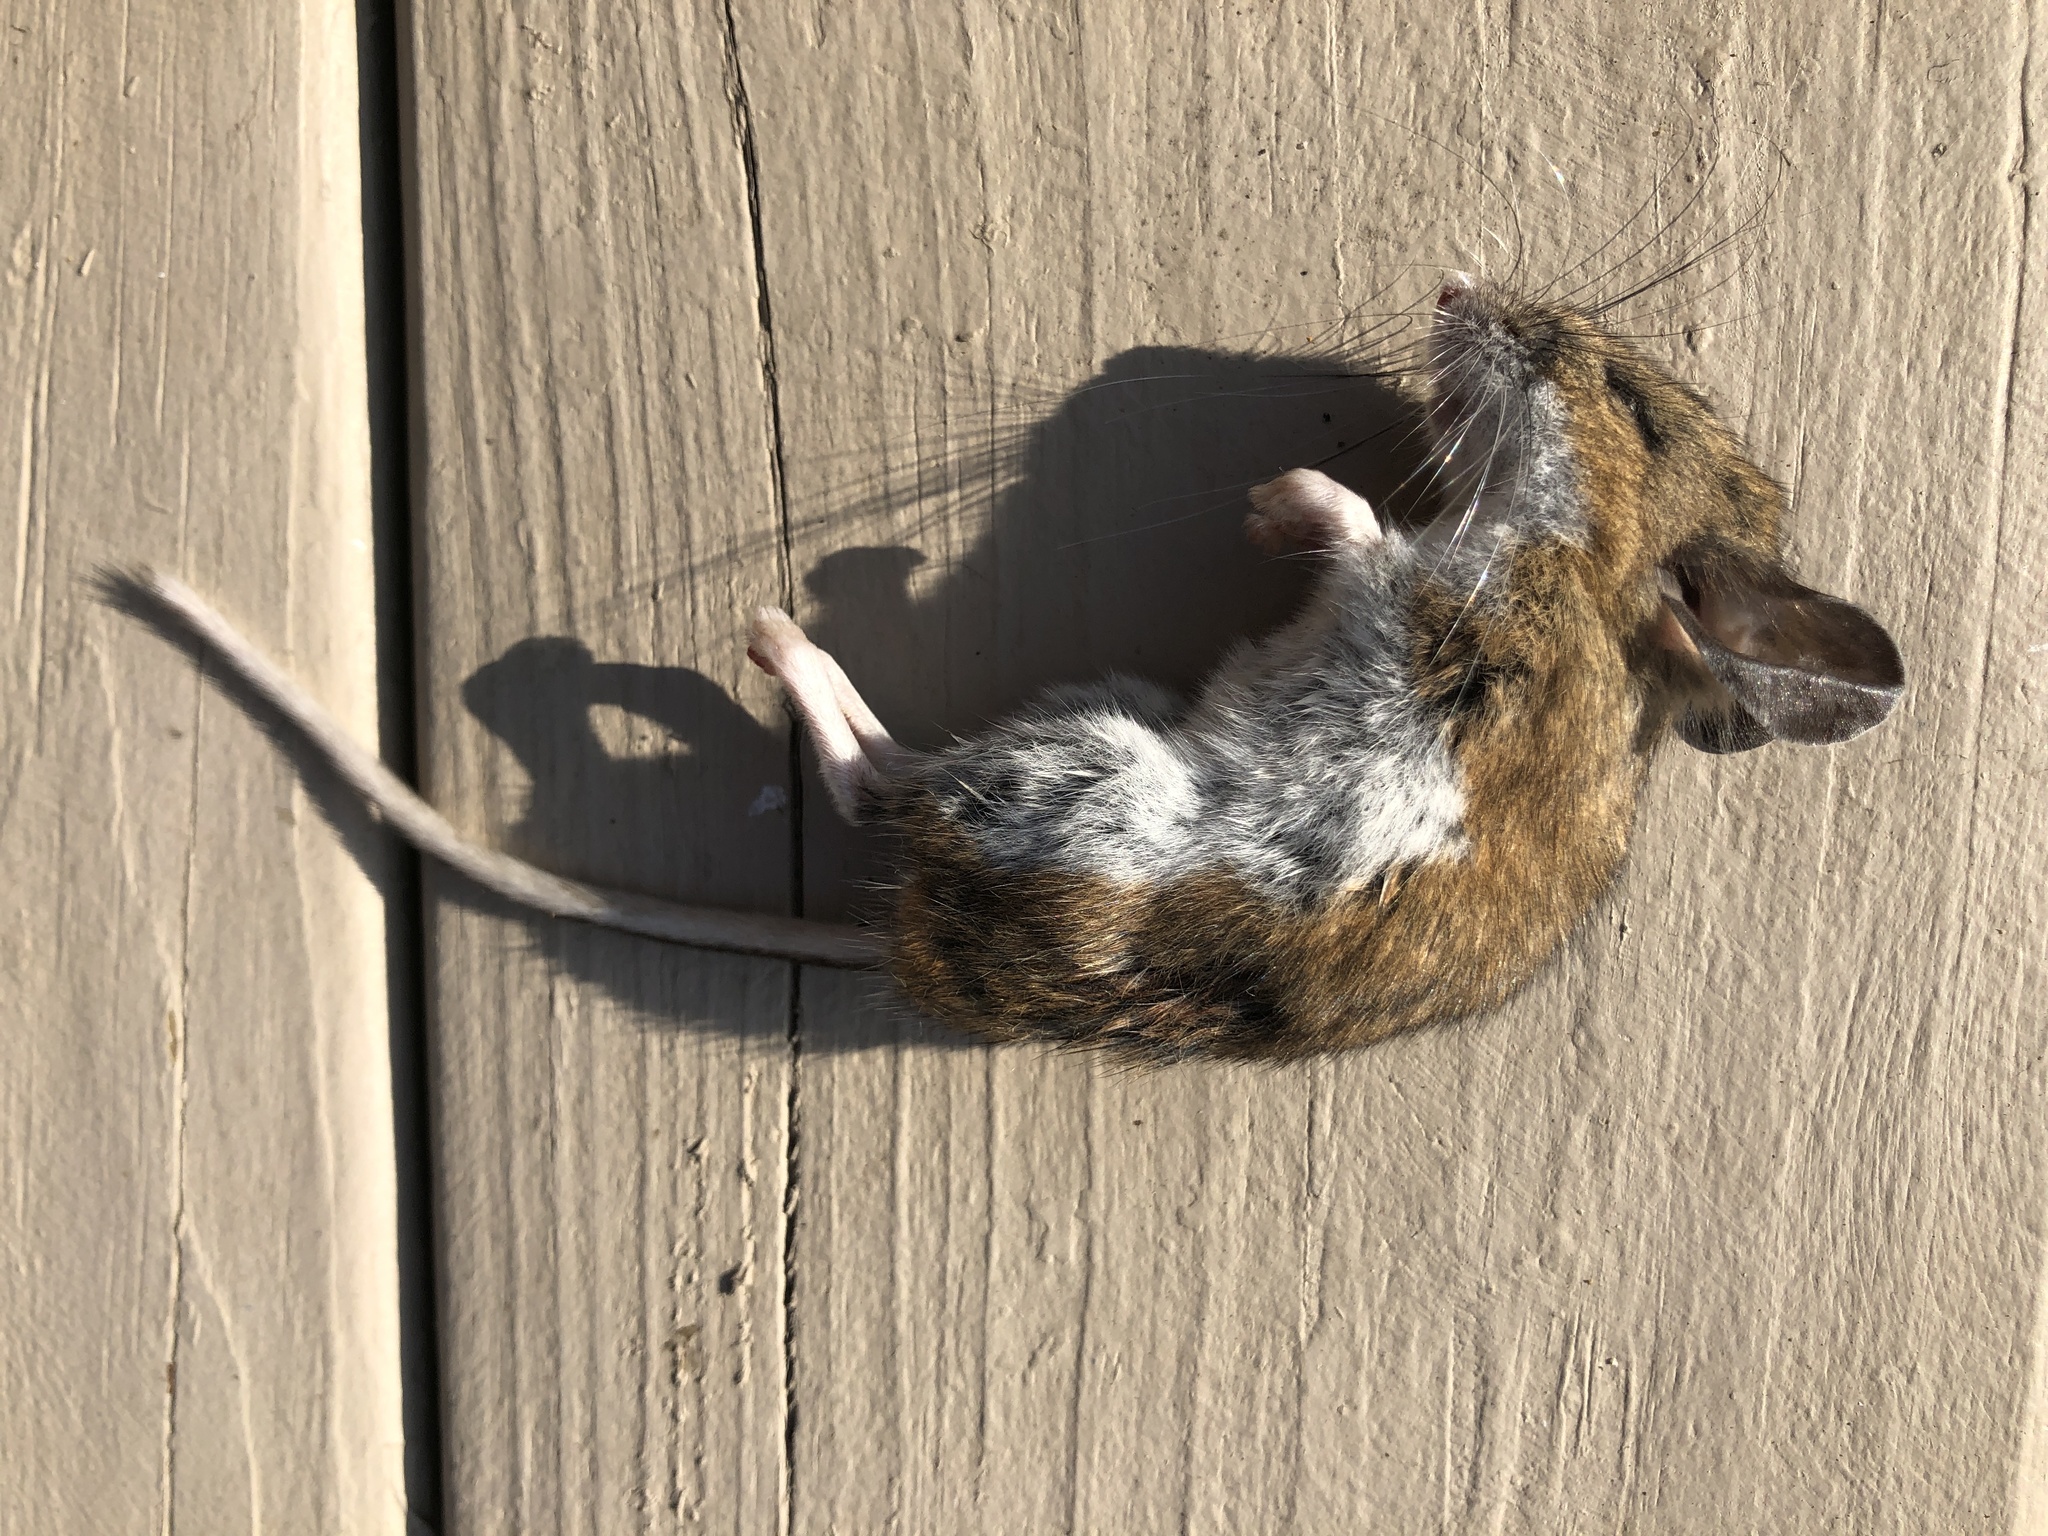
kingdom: Animalia
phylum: Chordata
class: Mammalia
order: Rodentia
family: Cricetidae
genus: Peromyscus
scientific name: Peromyscus maniculatus
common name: Deer mouse
